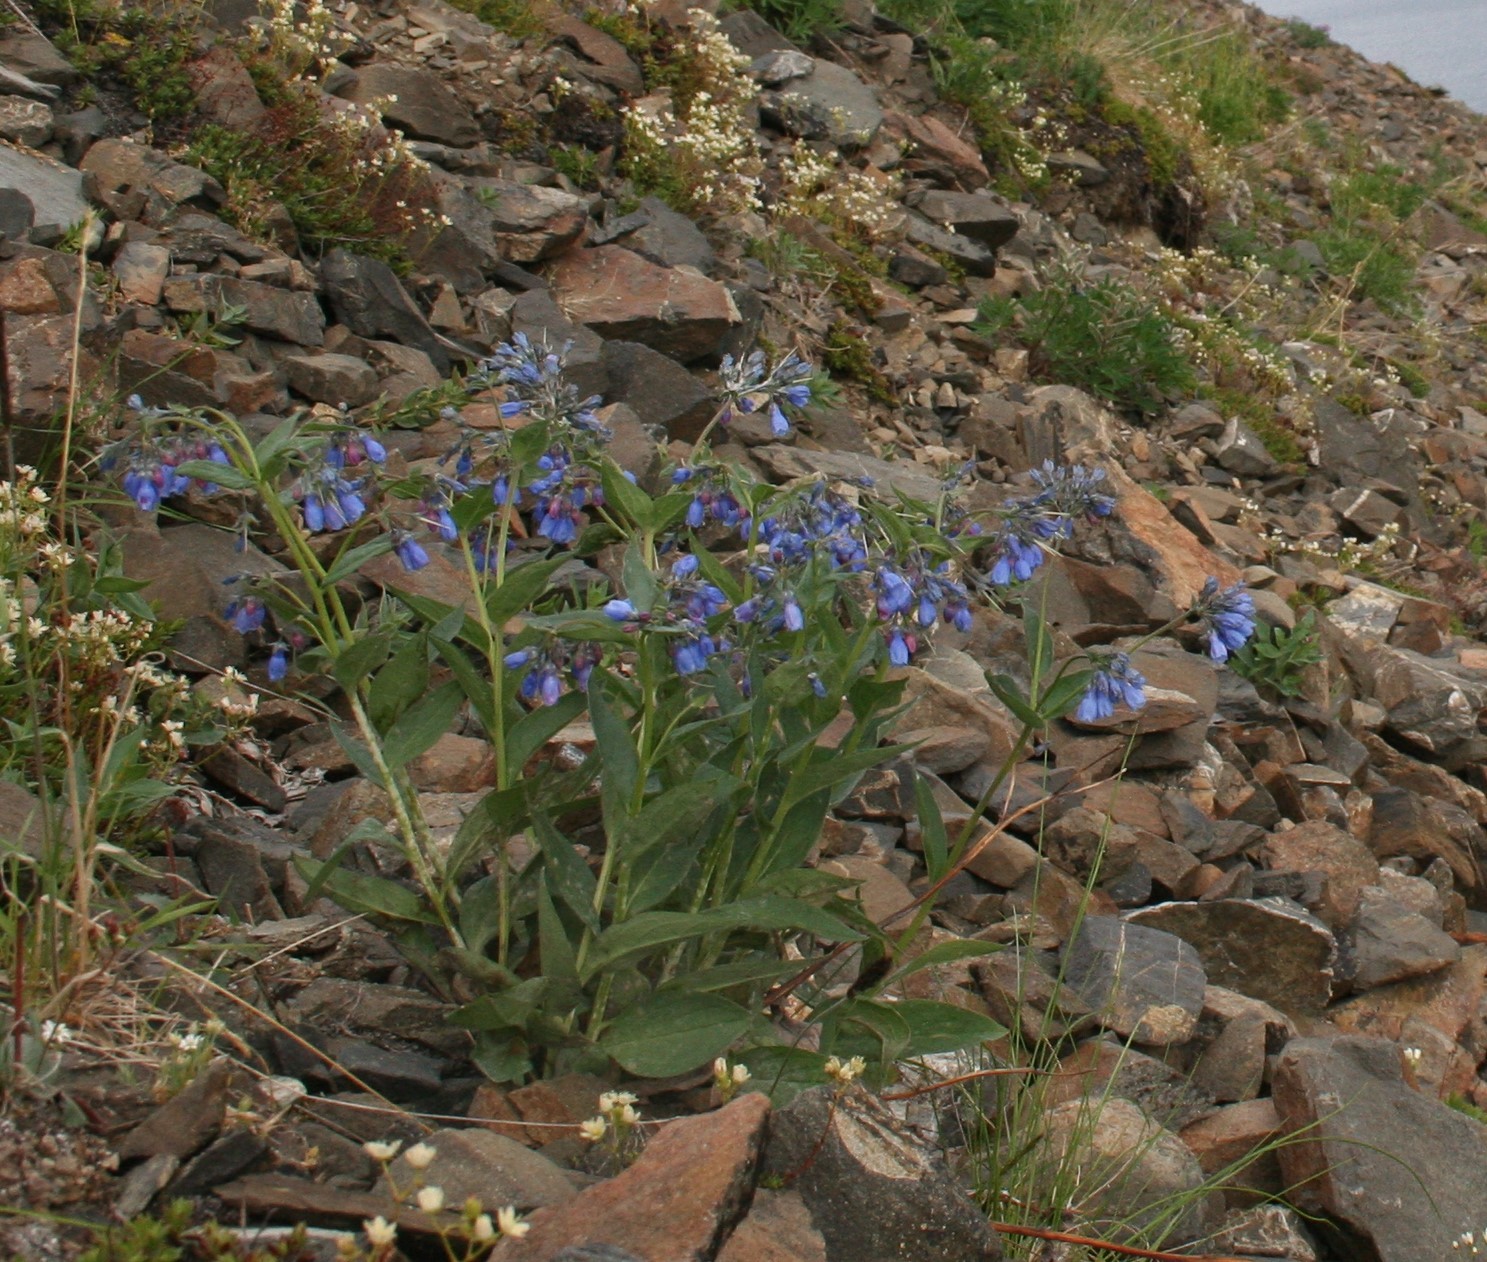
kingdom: Plantae
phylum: Tracheophyta
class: Magnoliopsida
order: Boraginales
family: Boraginaceae
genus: Mertensia
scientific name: Mertensia paniculata
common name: Panicled bluebells
